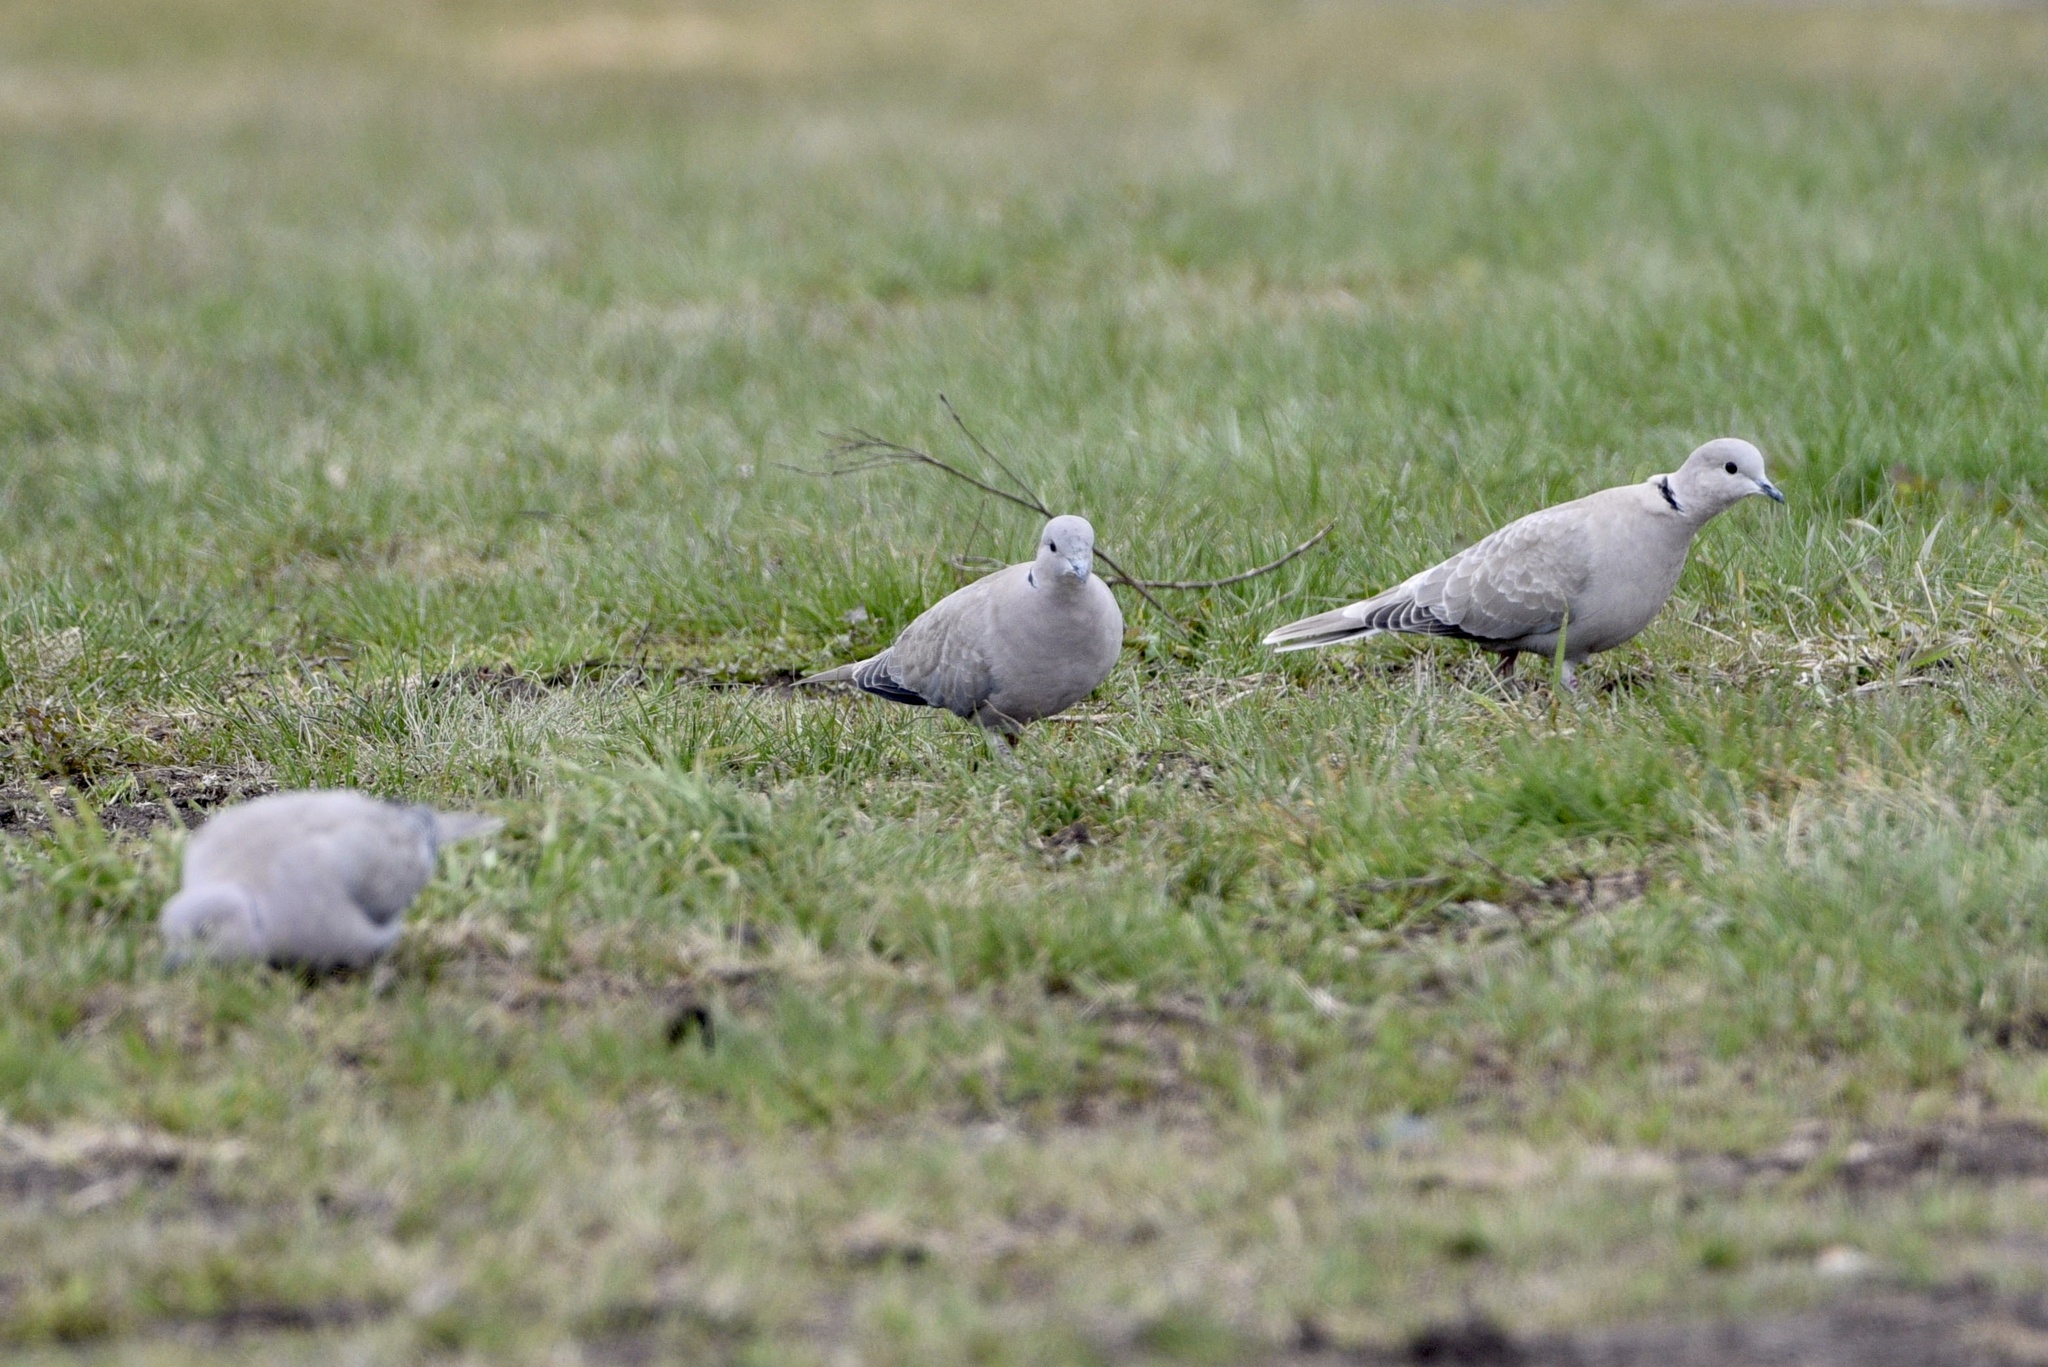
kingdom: Animalia
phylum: Chordata
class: Aves
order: Columbiformes
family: Columbidae
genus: Streptopelia
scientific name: Streptopelia decaocto
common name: Eurasian collared dove
